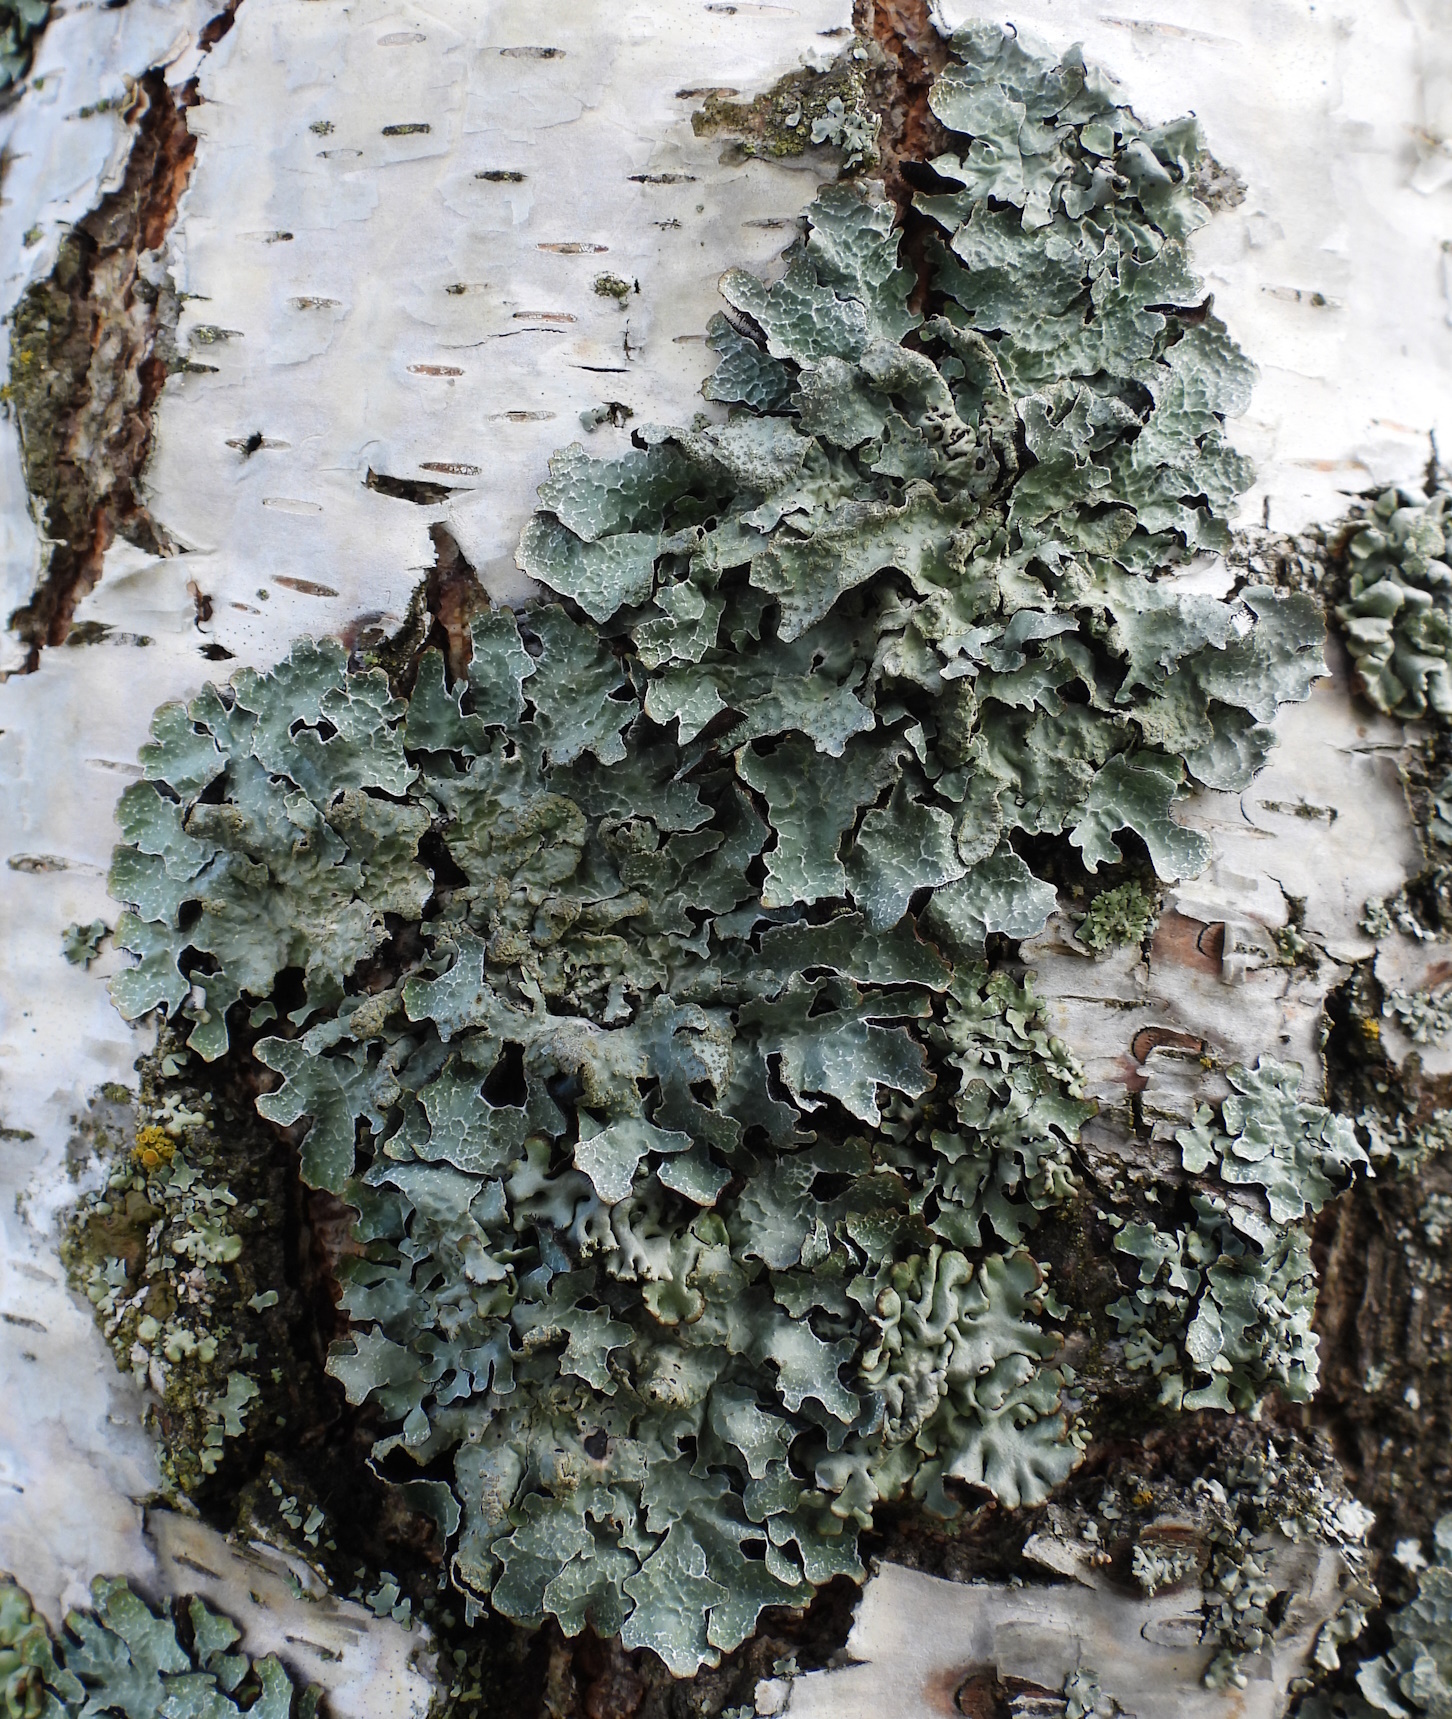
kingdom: Fungi
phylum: Ascomycota
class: Lecanoromycetes
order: Lecanorales
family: Parmeliaceae
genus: Parmelia
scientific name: Parmelia sulcata
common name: Netted shield lichen
